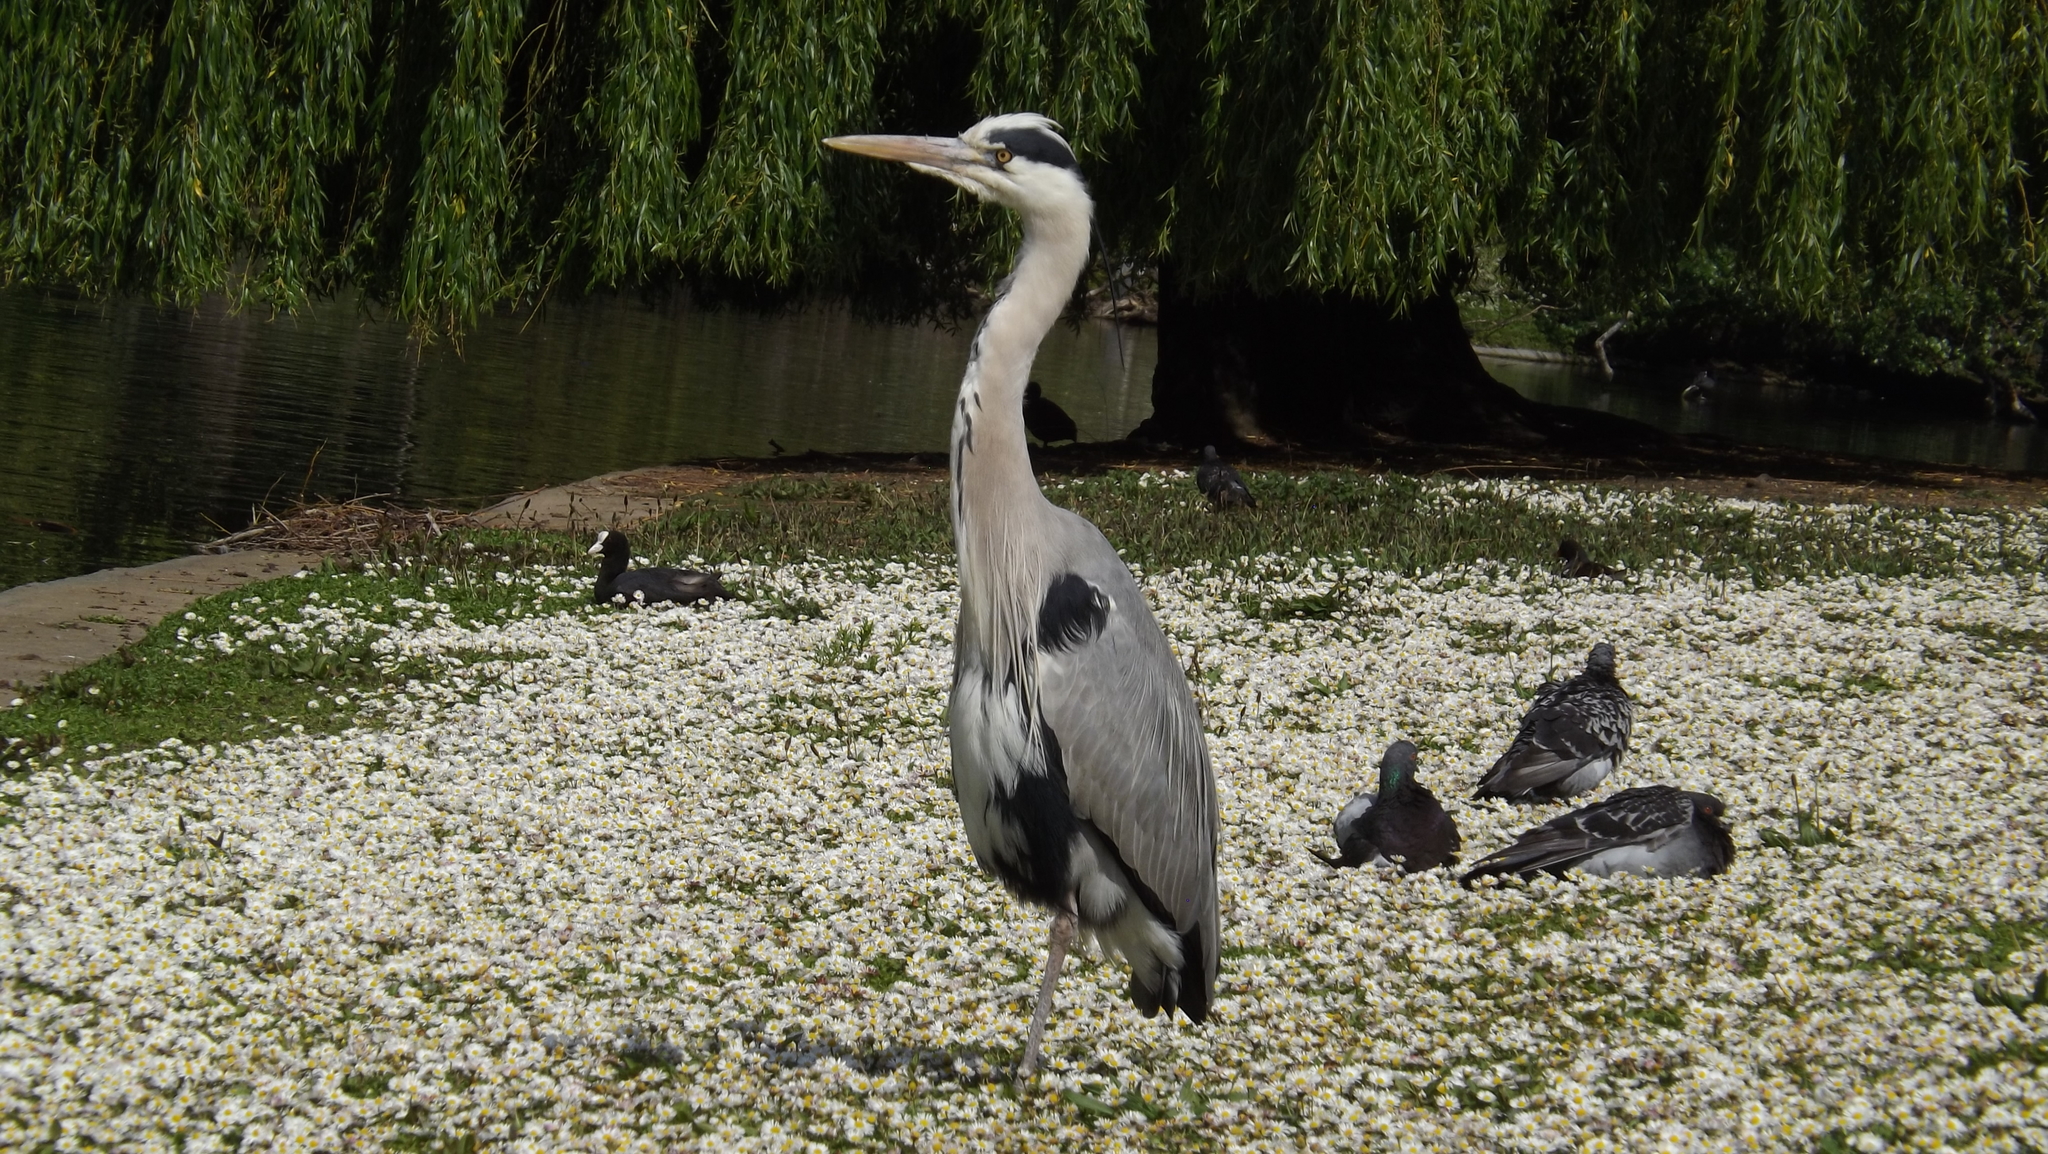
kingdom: Animalia
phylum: Chordata
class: Aves
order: Pelecaniformes
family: Ardeidae
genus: Ardea
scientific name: Ardea cinerea
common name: Grey heron
